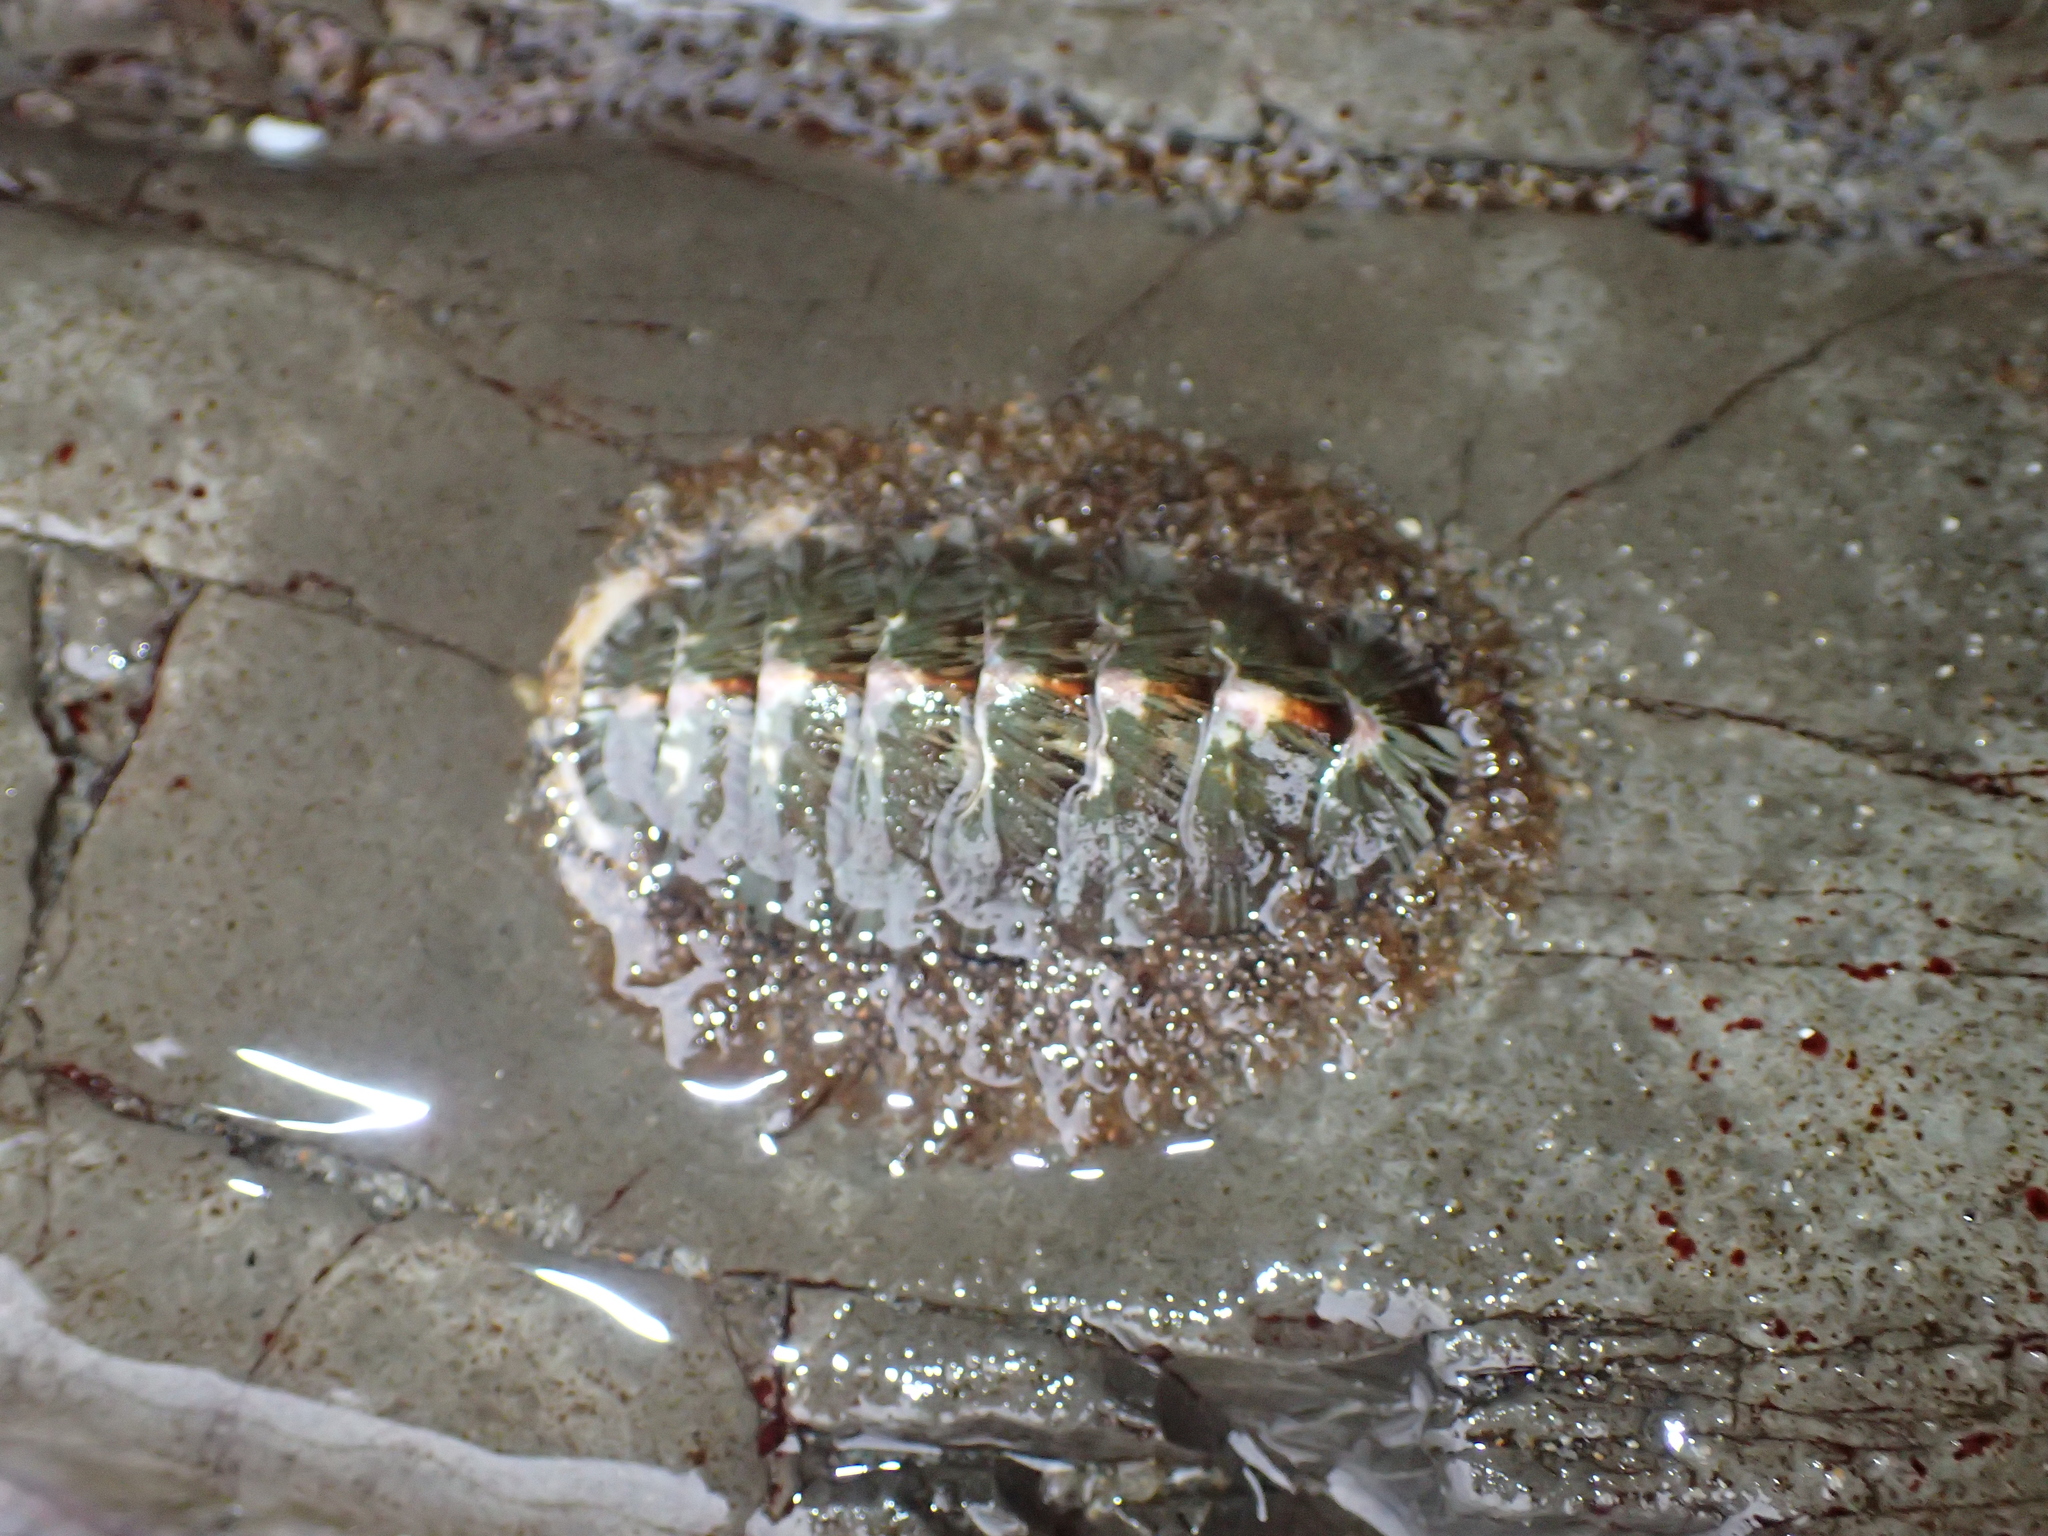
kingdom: Animalia
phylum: Mollusca
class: Polyplacophora
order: Chitonida
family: Mopaliidae
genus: Mopalia
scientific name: Mopalia lignosa
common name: Woody chiton
